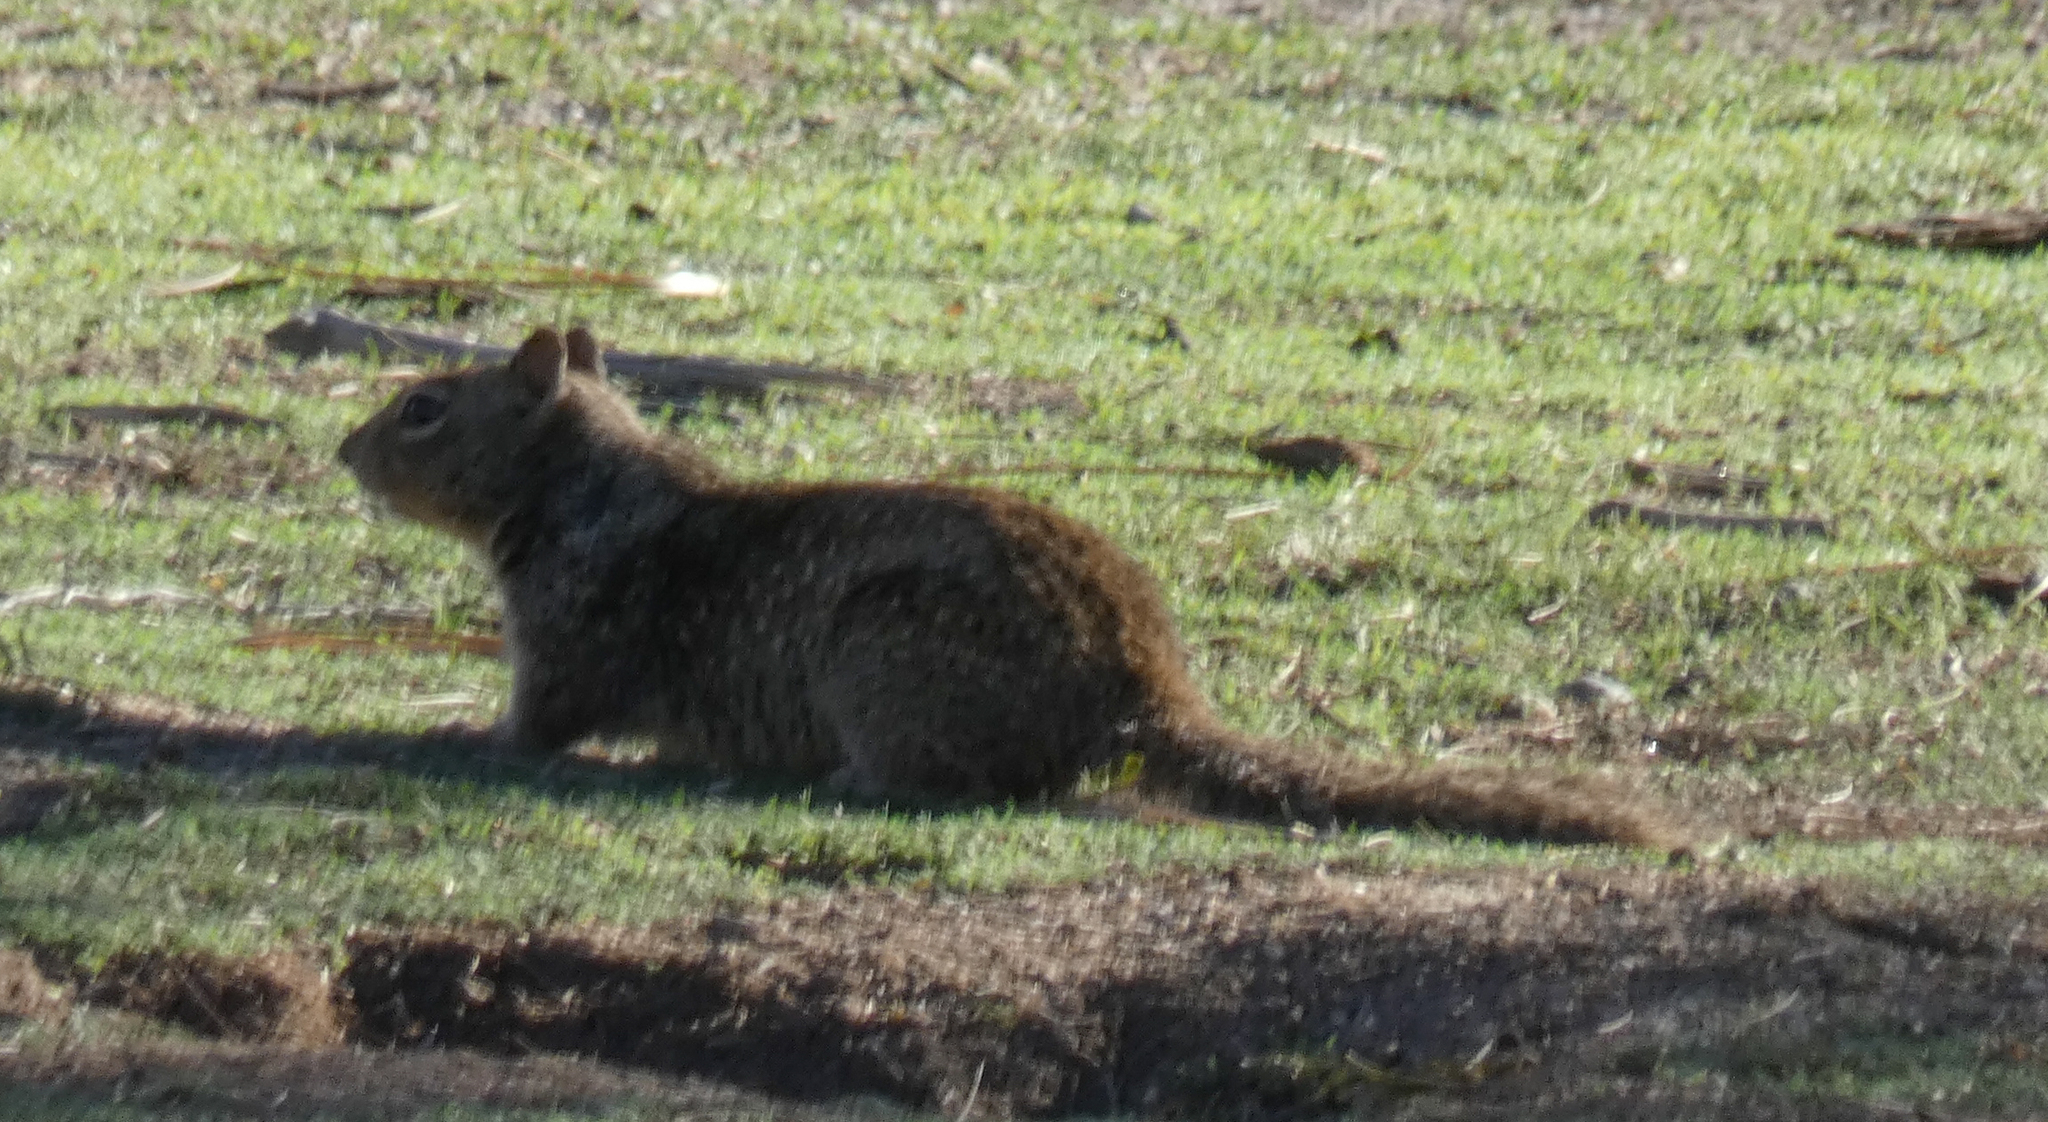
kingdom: Animalia
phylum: Chordata
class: Mammalia
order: Rodentia
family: Sciuridae
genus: Otospermophilus
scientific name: Otospermophilus beecheyi
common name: California ground squirrel
